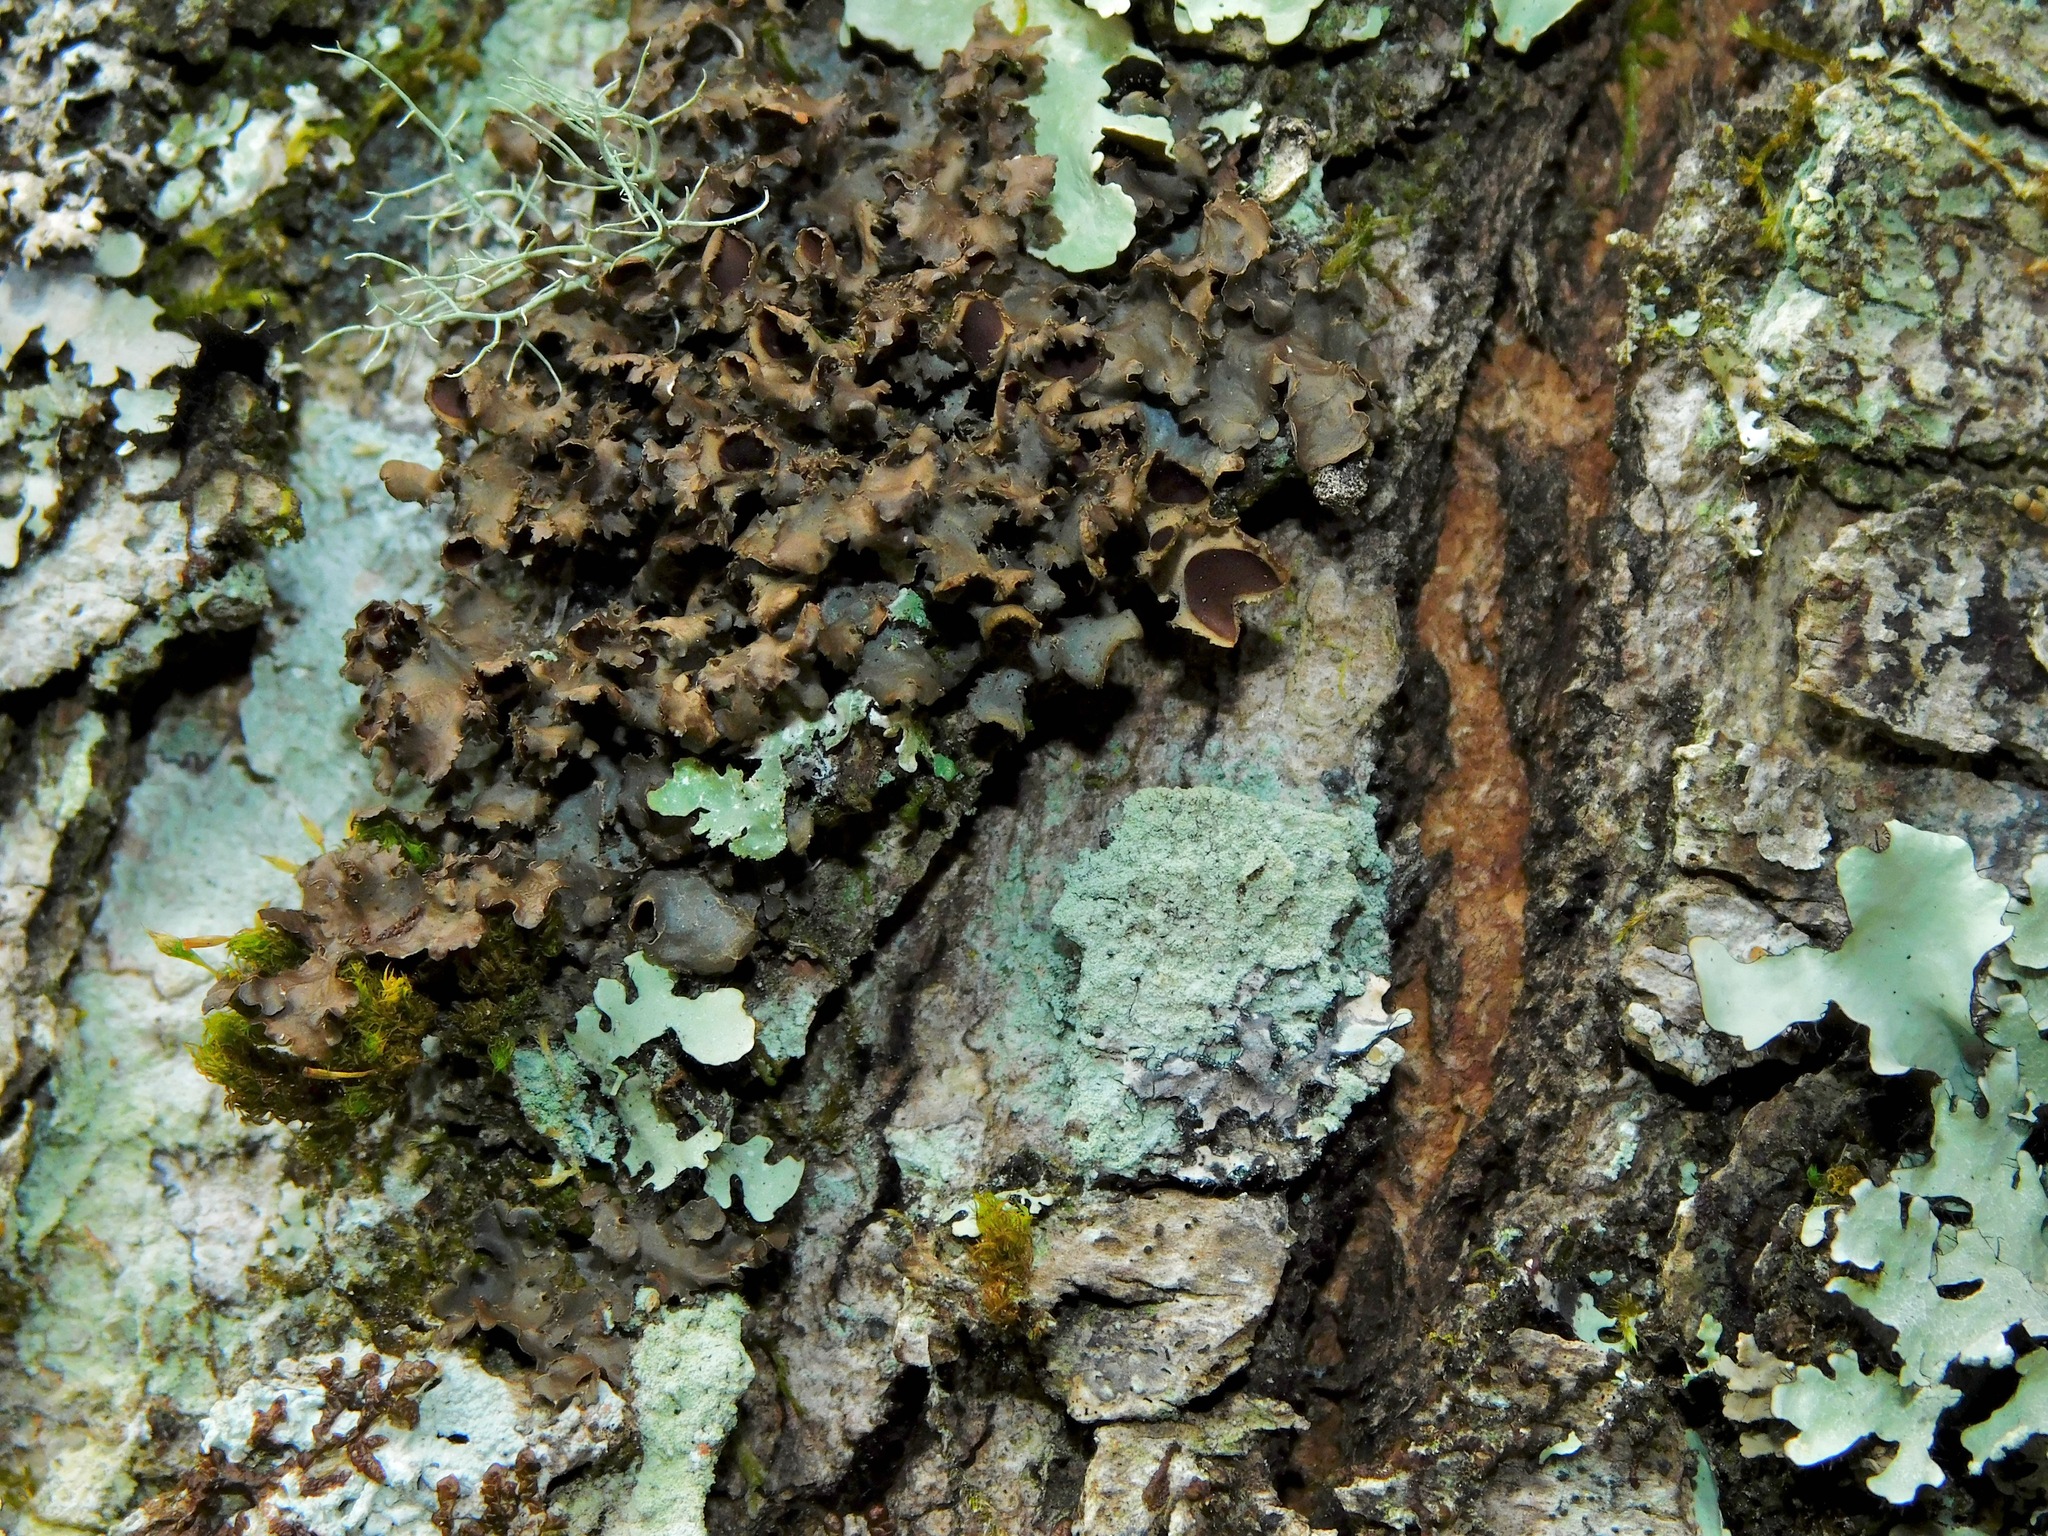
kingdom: Fungi
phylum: Ascomycota
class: Lecanoromycetes
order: Peltigerales
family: Nephromataceae
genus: Nephroma
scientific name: Nephroma helveticum
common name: Fringed kidney lichen
